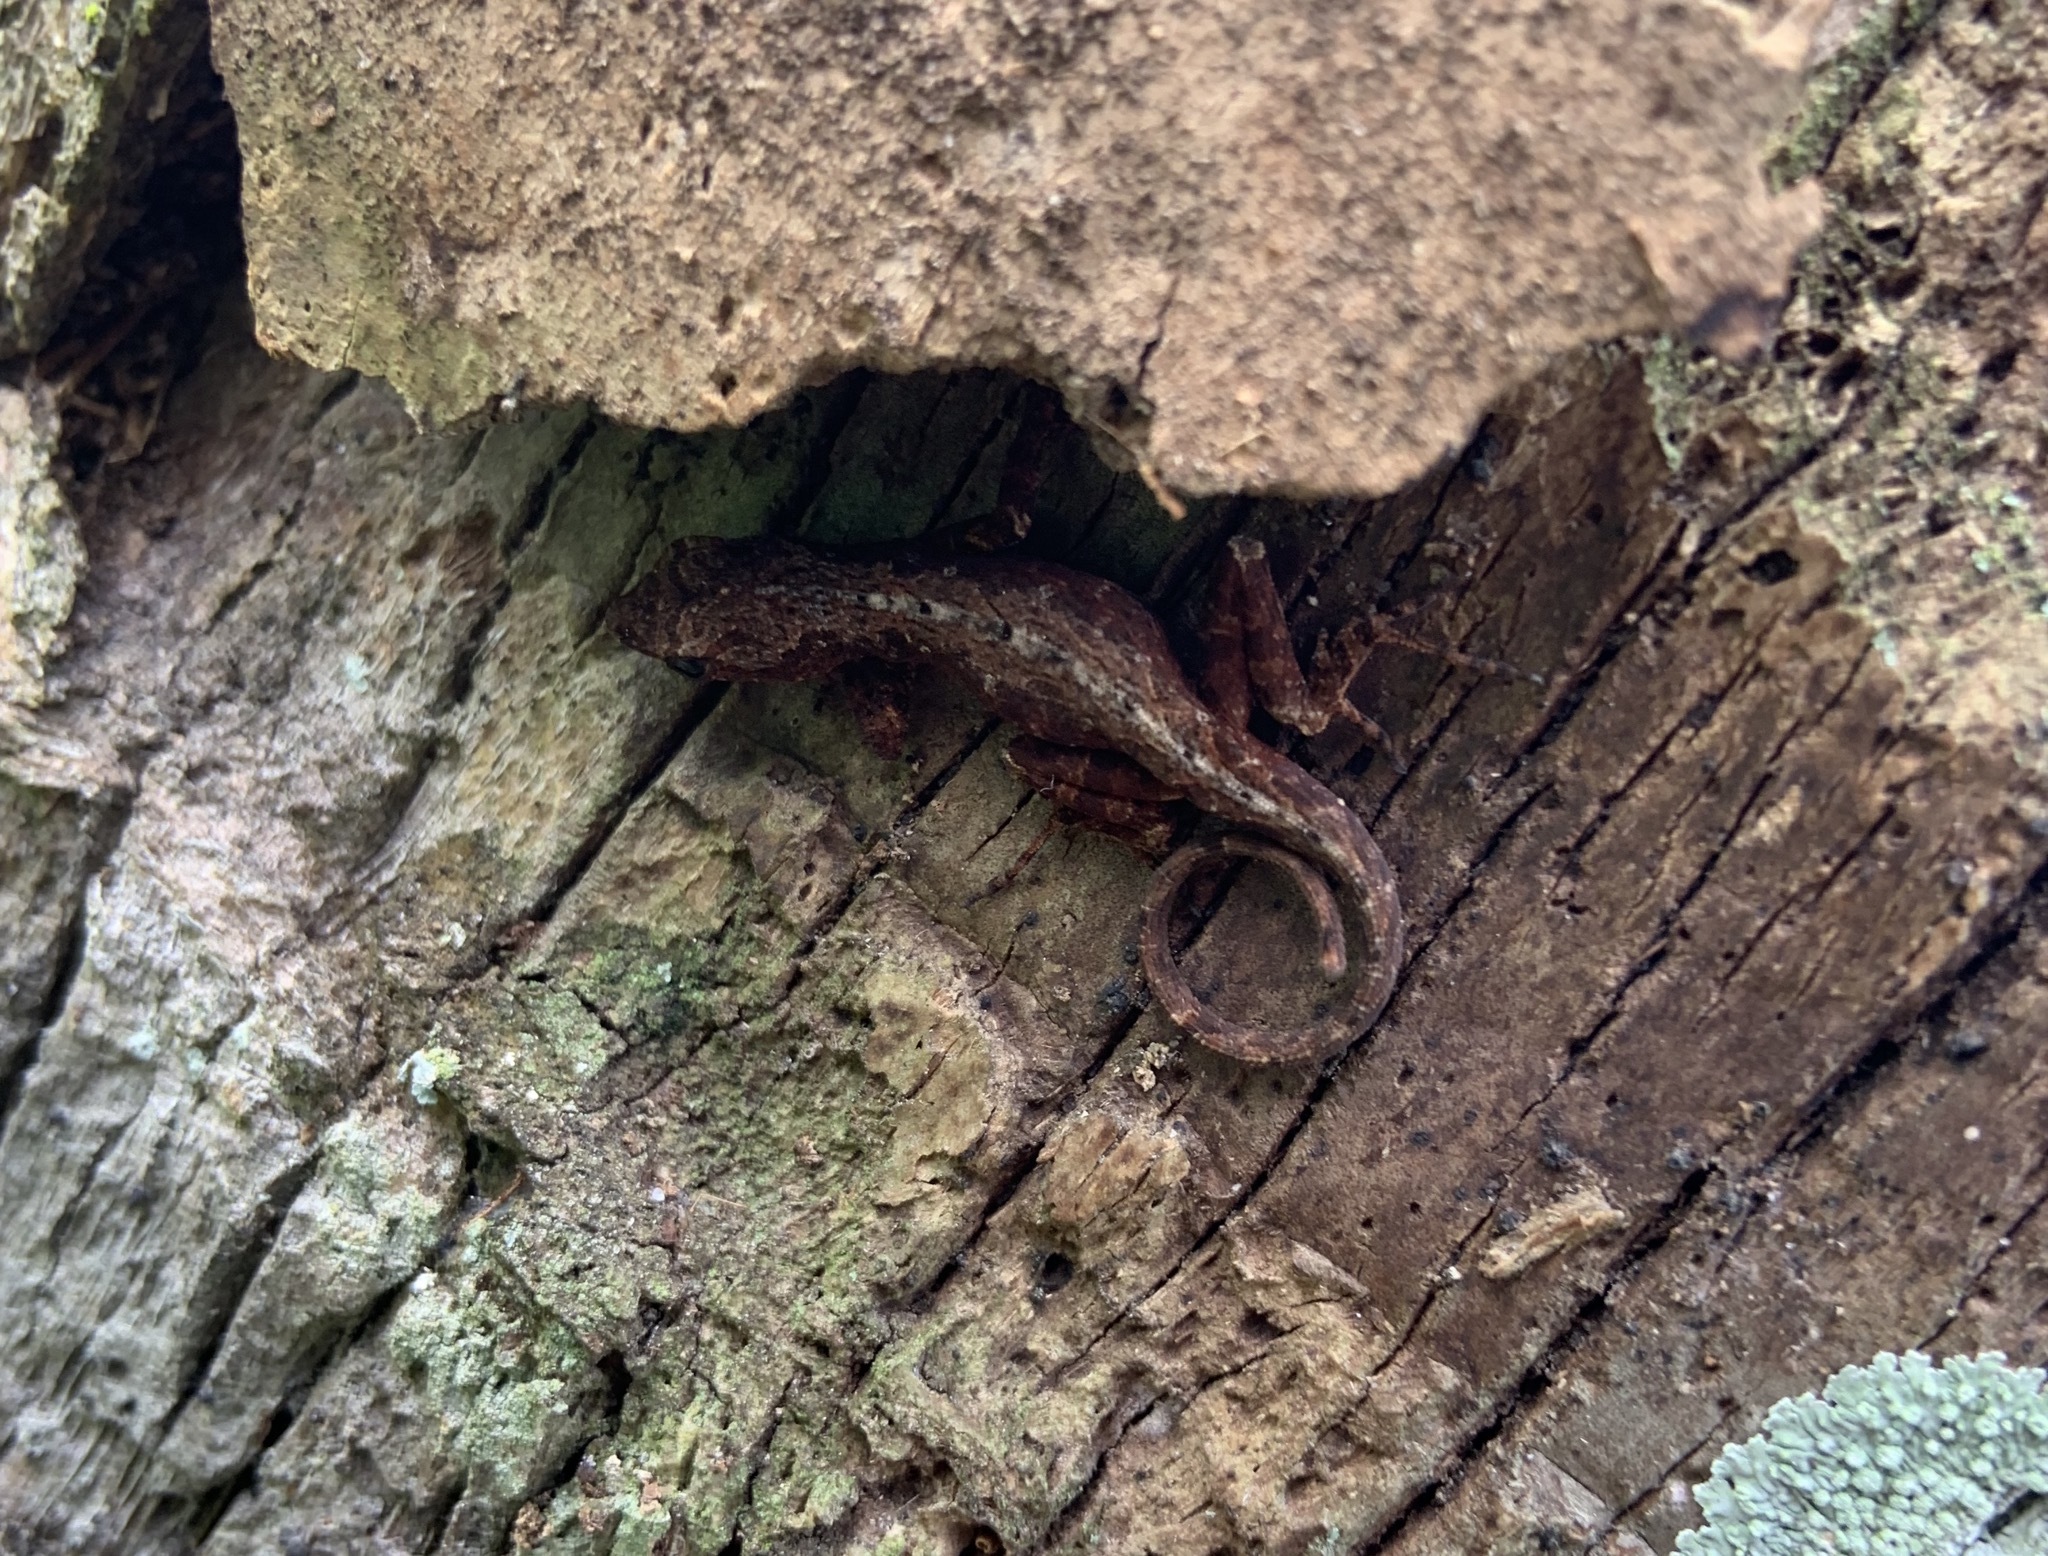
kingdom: Animalia
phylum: Chordata
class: Squamata
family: Dactyloidae
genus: Anolis
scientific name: Anolis sagrei
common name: Brown anole
